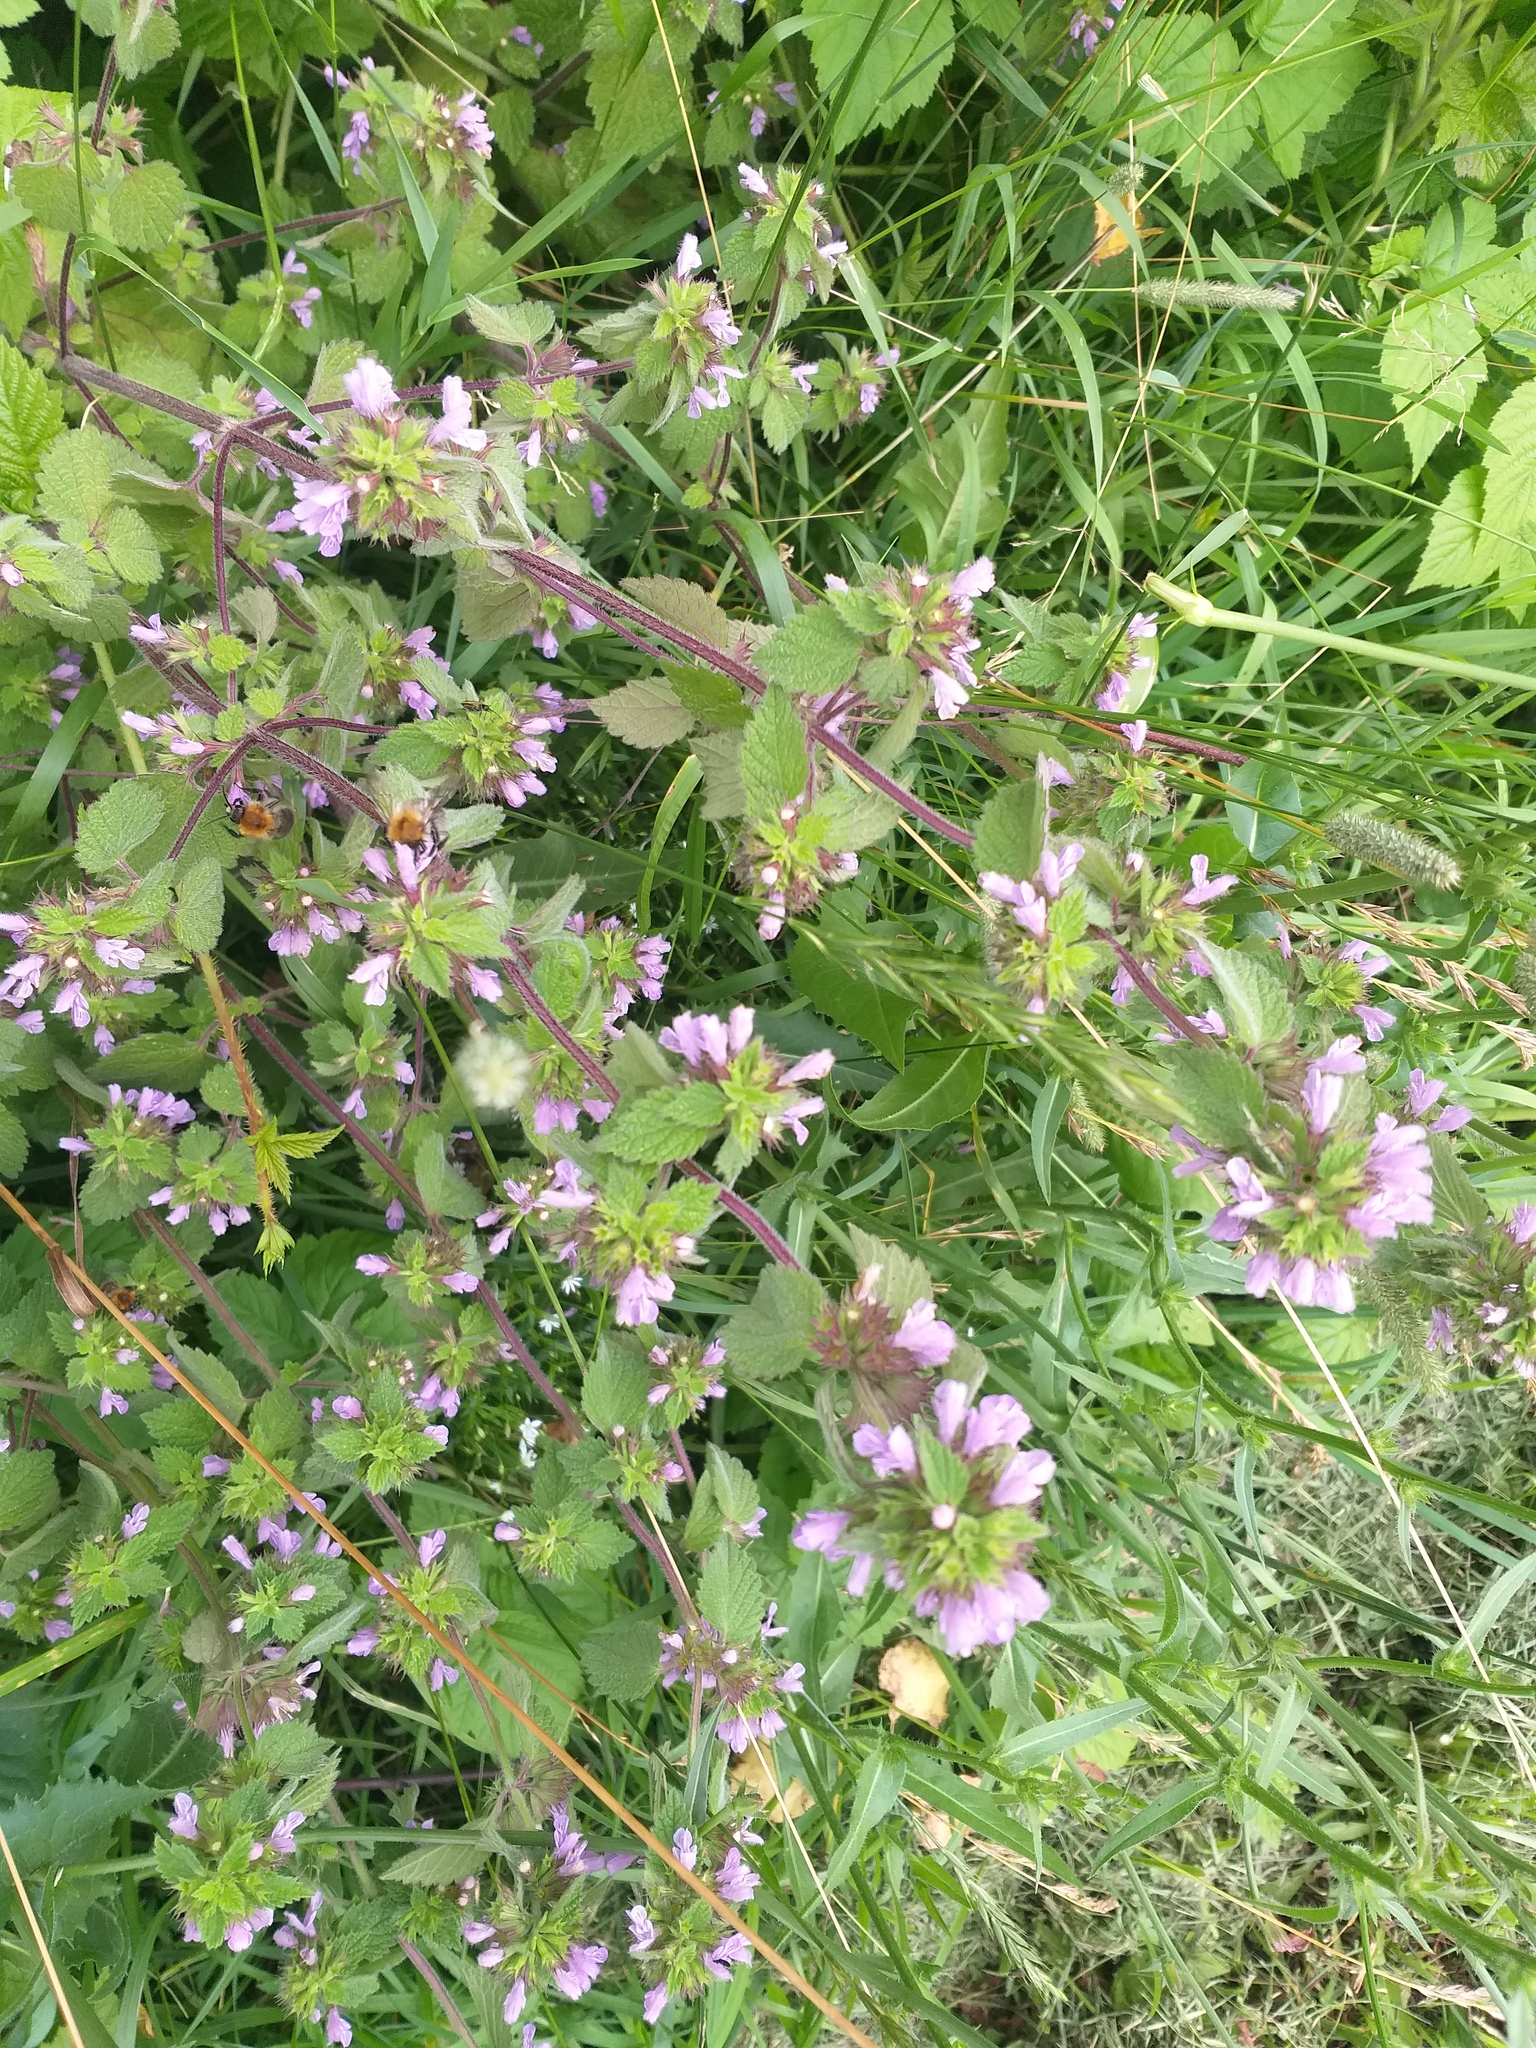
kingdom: Plantae
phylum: Tracheophyta
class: Magnoliopsida
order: Lamiales
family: Lamiaceae
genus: Ballota
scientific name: Ballota nigra
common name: Black horehound
